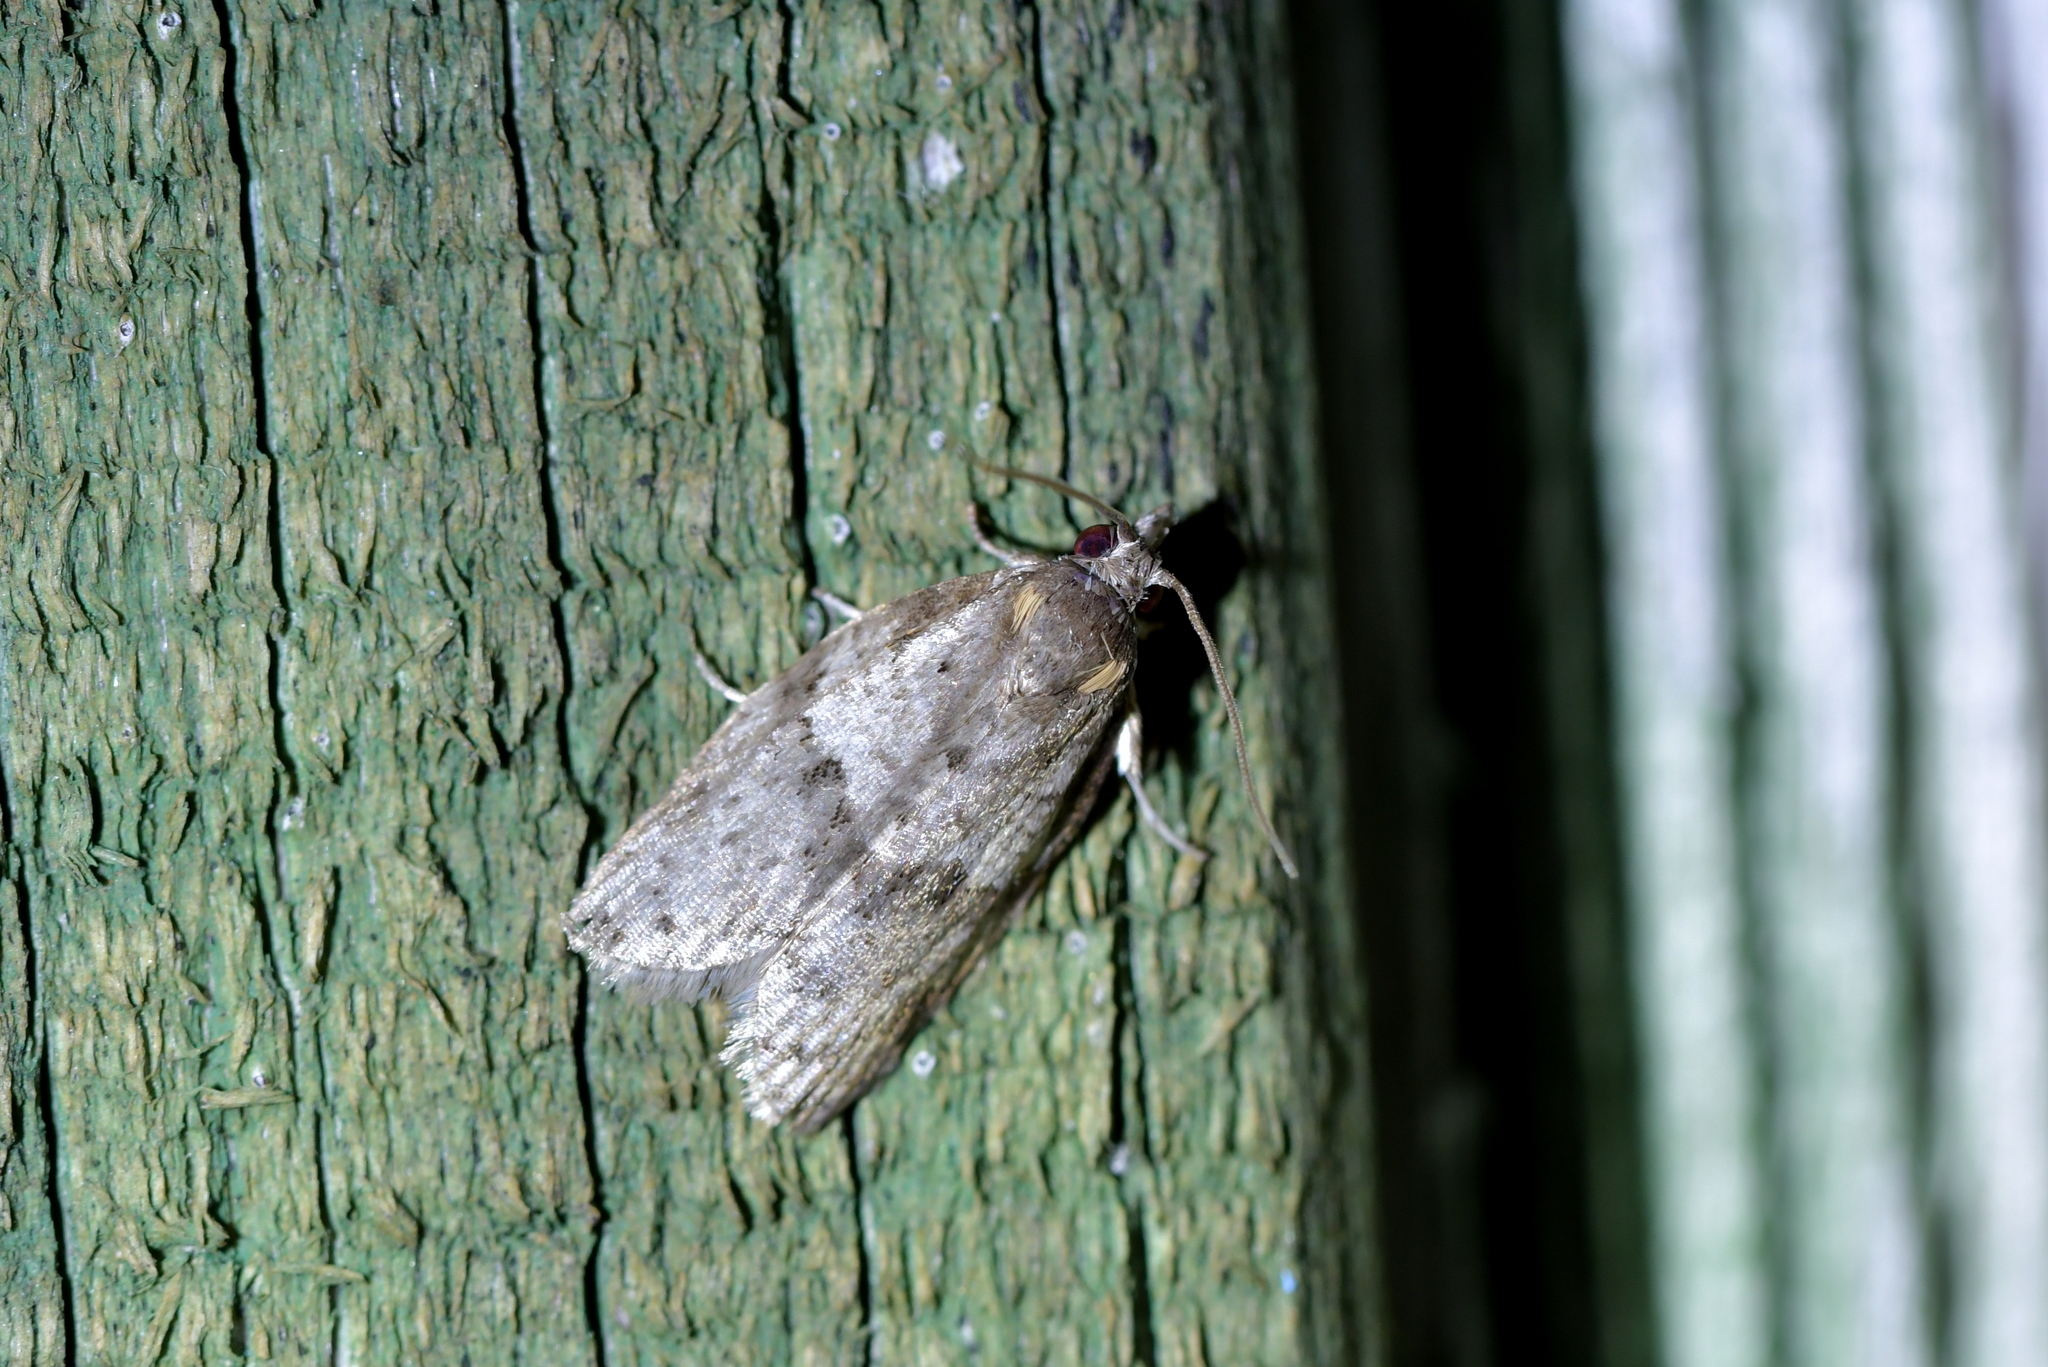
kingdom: Animalia
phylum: Arthropoda
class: Insecta
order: Lepidoptera
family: Tortricidae
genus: Isotenes
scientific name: Isotenes miserana
